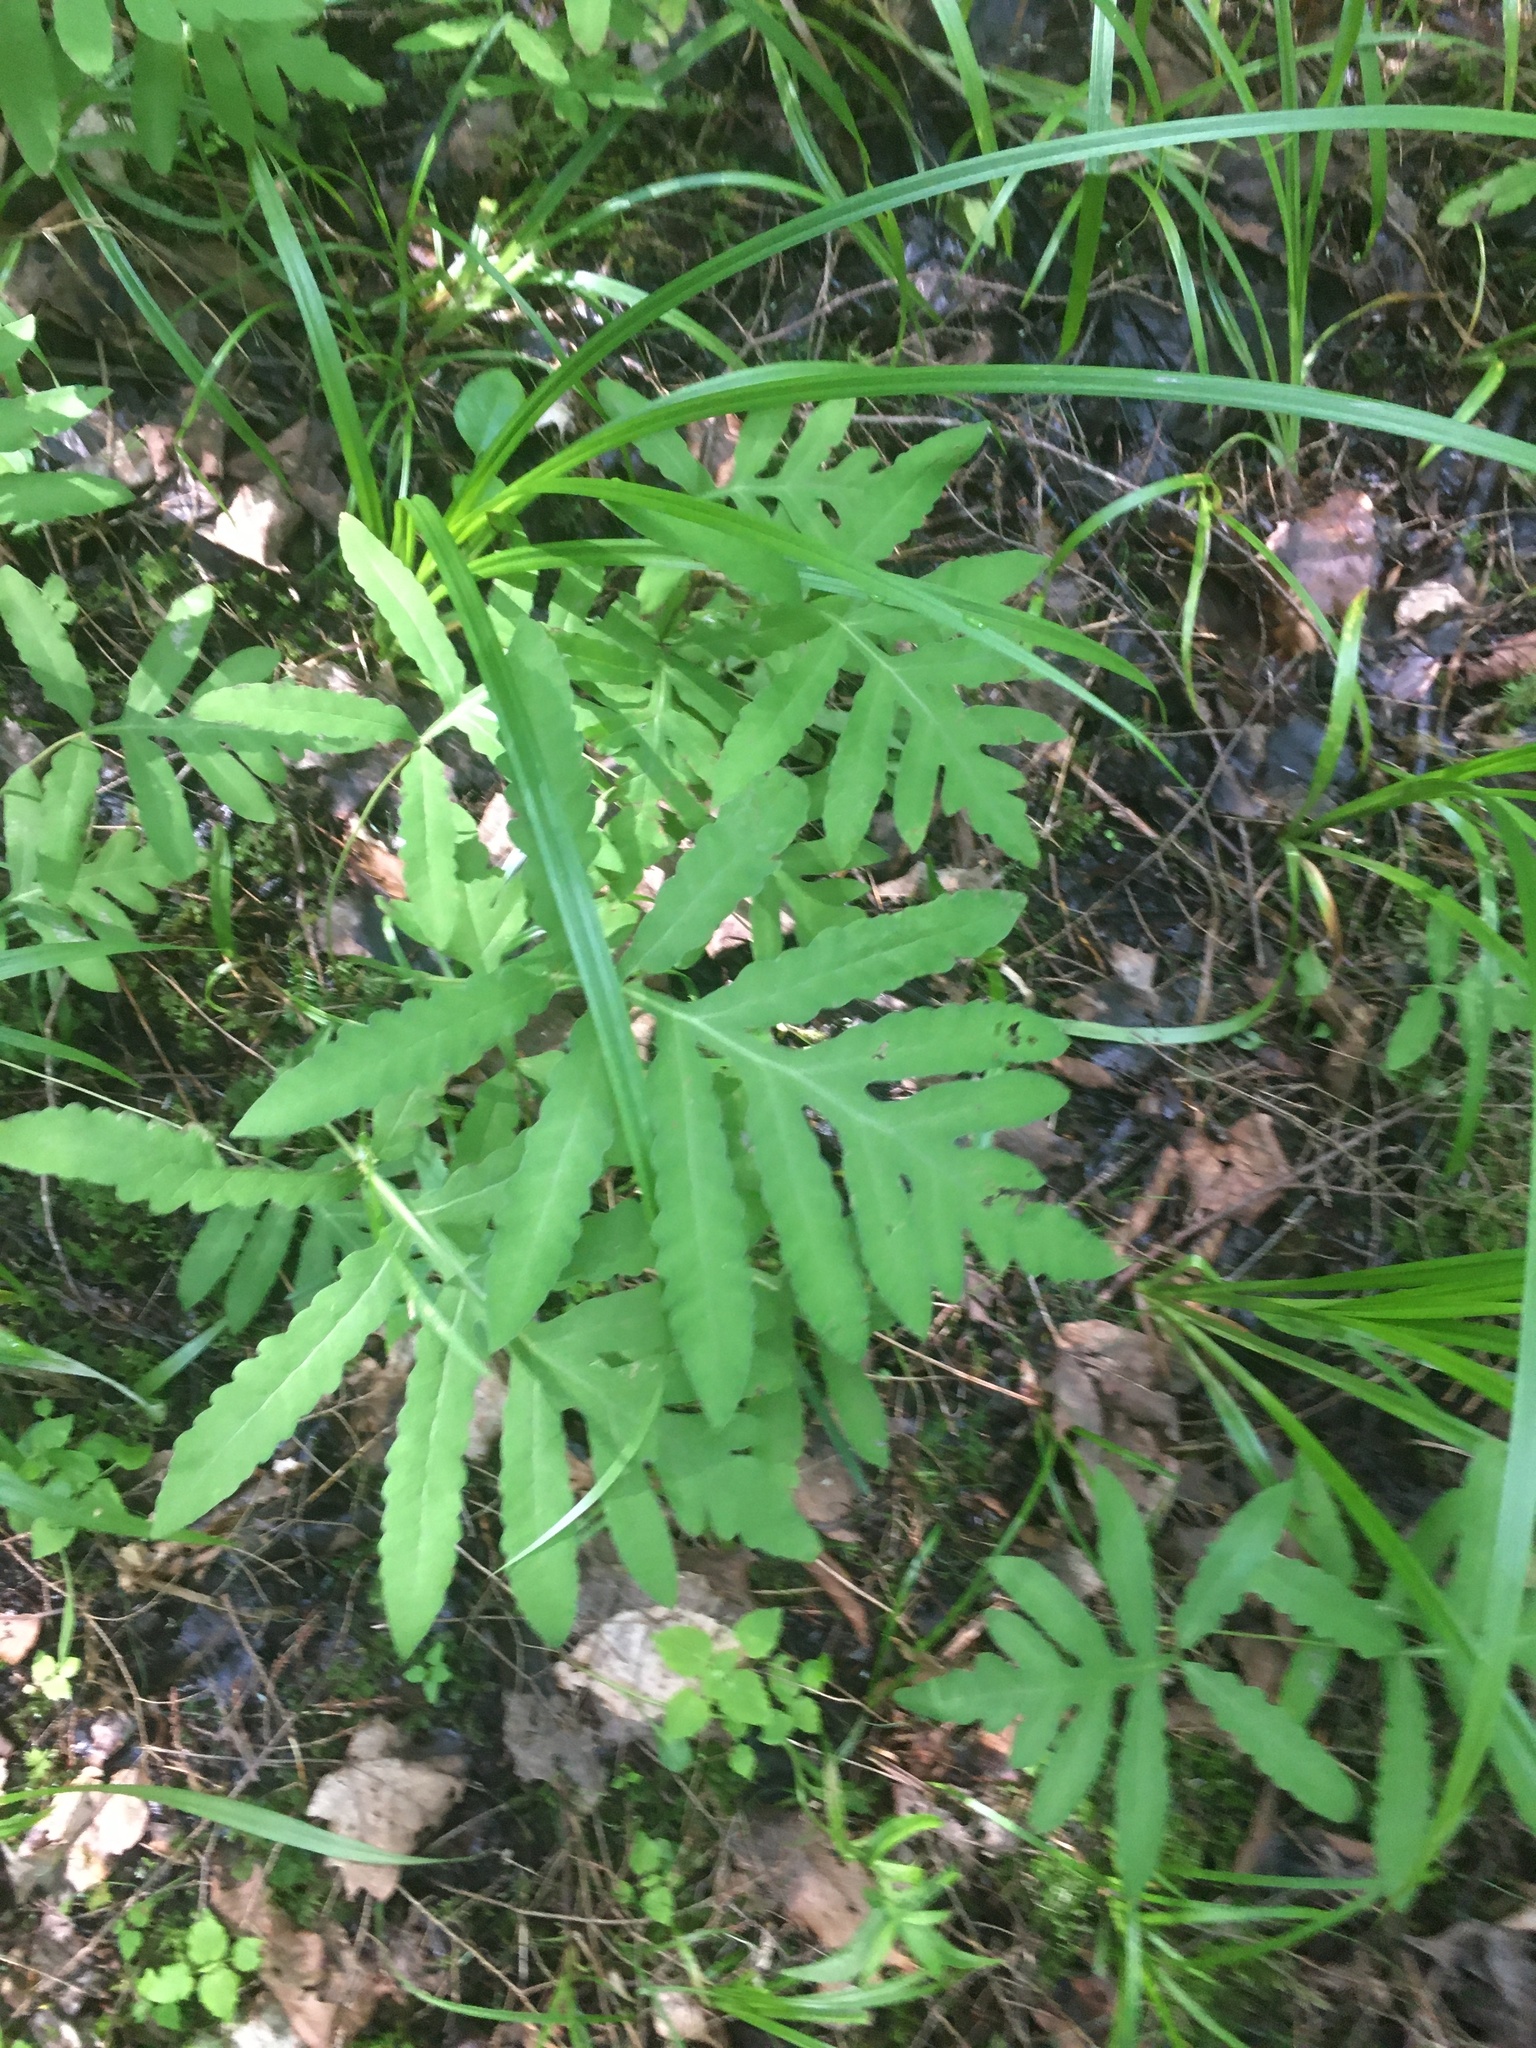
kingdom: Plantae
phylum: Tracheophyta
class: Polypodiopsida
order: Polypodiales
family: Onocleaceae
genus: Onoclea
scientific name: Onoclea sensibilis
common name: Sensitive fern
